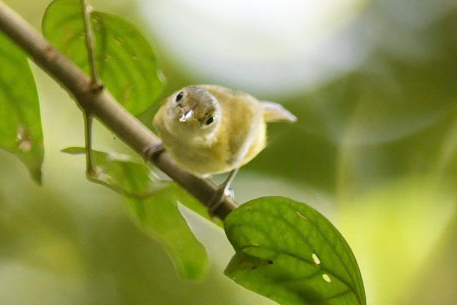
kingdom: Animalia
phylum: Chordata
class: Aves
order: Passeriformes
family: Vireonidae
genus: Hylophilus
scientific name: Hylophilus decurtatus
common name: Lesser greenlet
